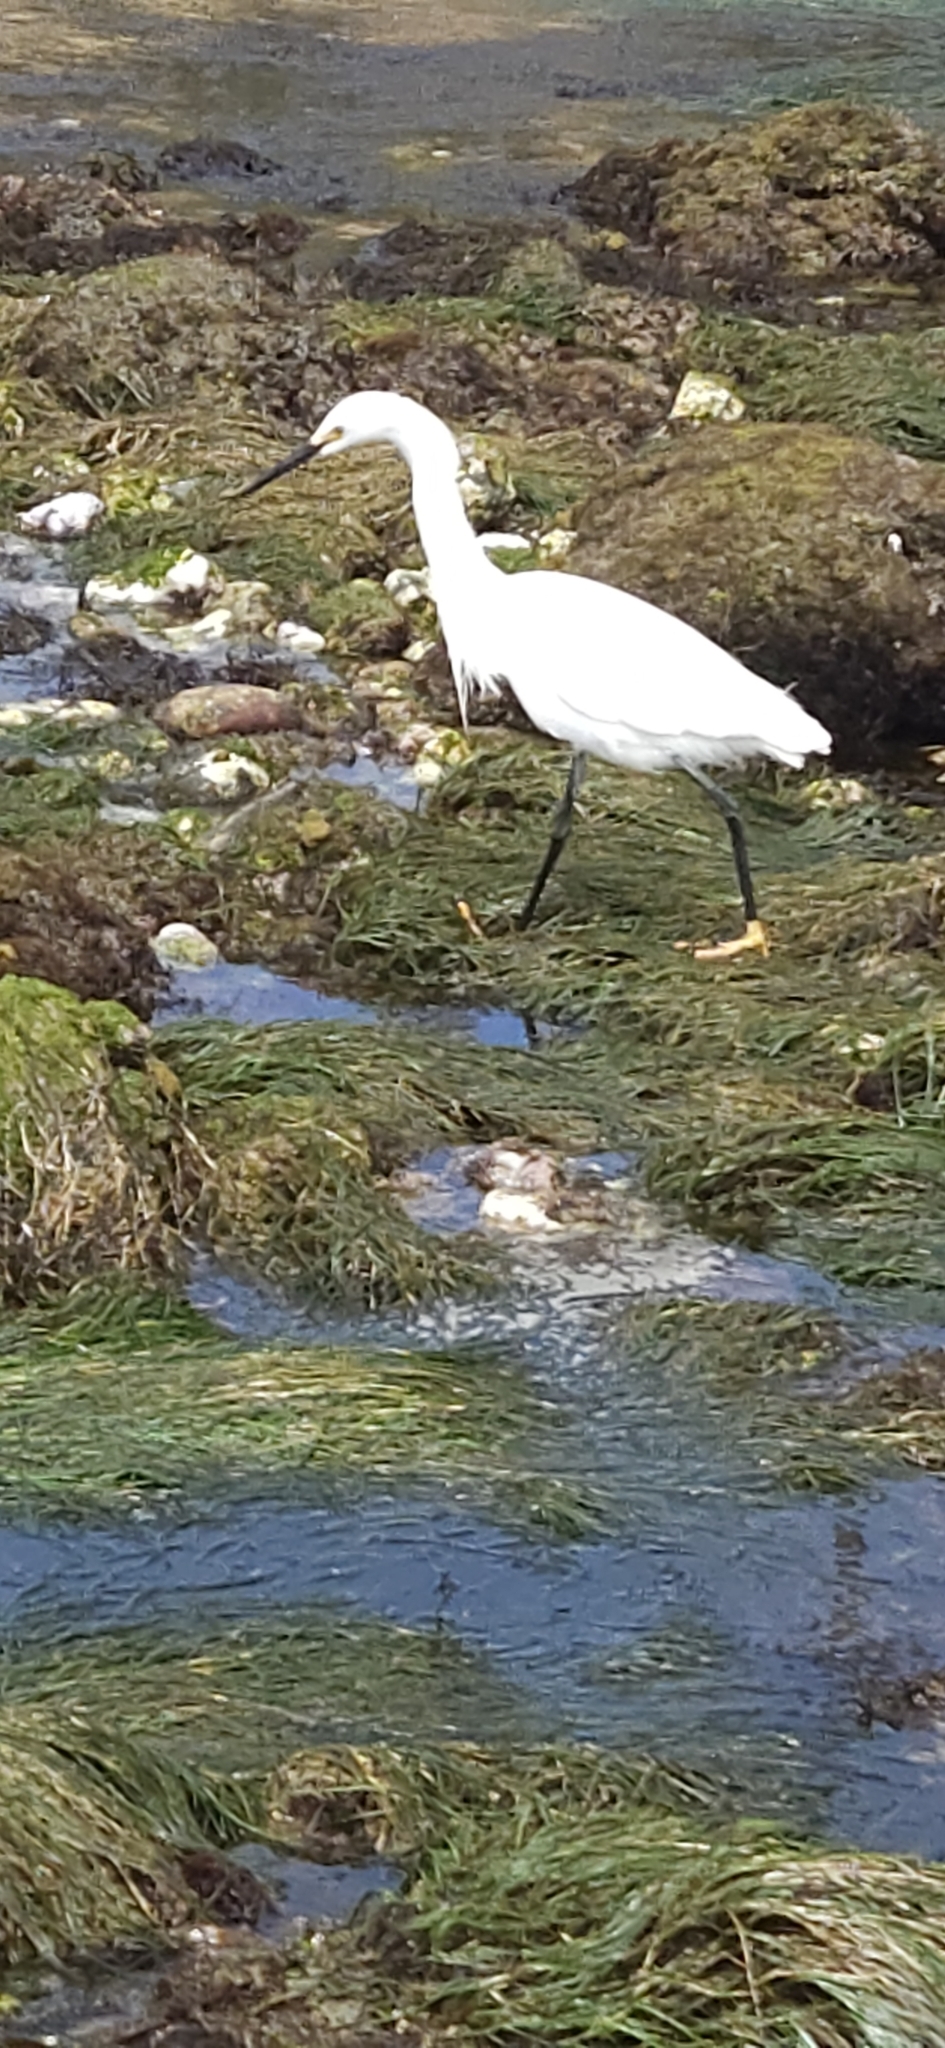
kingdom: Animalia
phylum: Chordata
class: Aves
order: Pelecaniformes
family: Ardeidae
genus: Egretta
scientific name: Egretta thula
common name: Snowy egret
